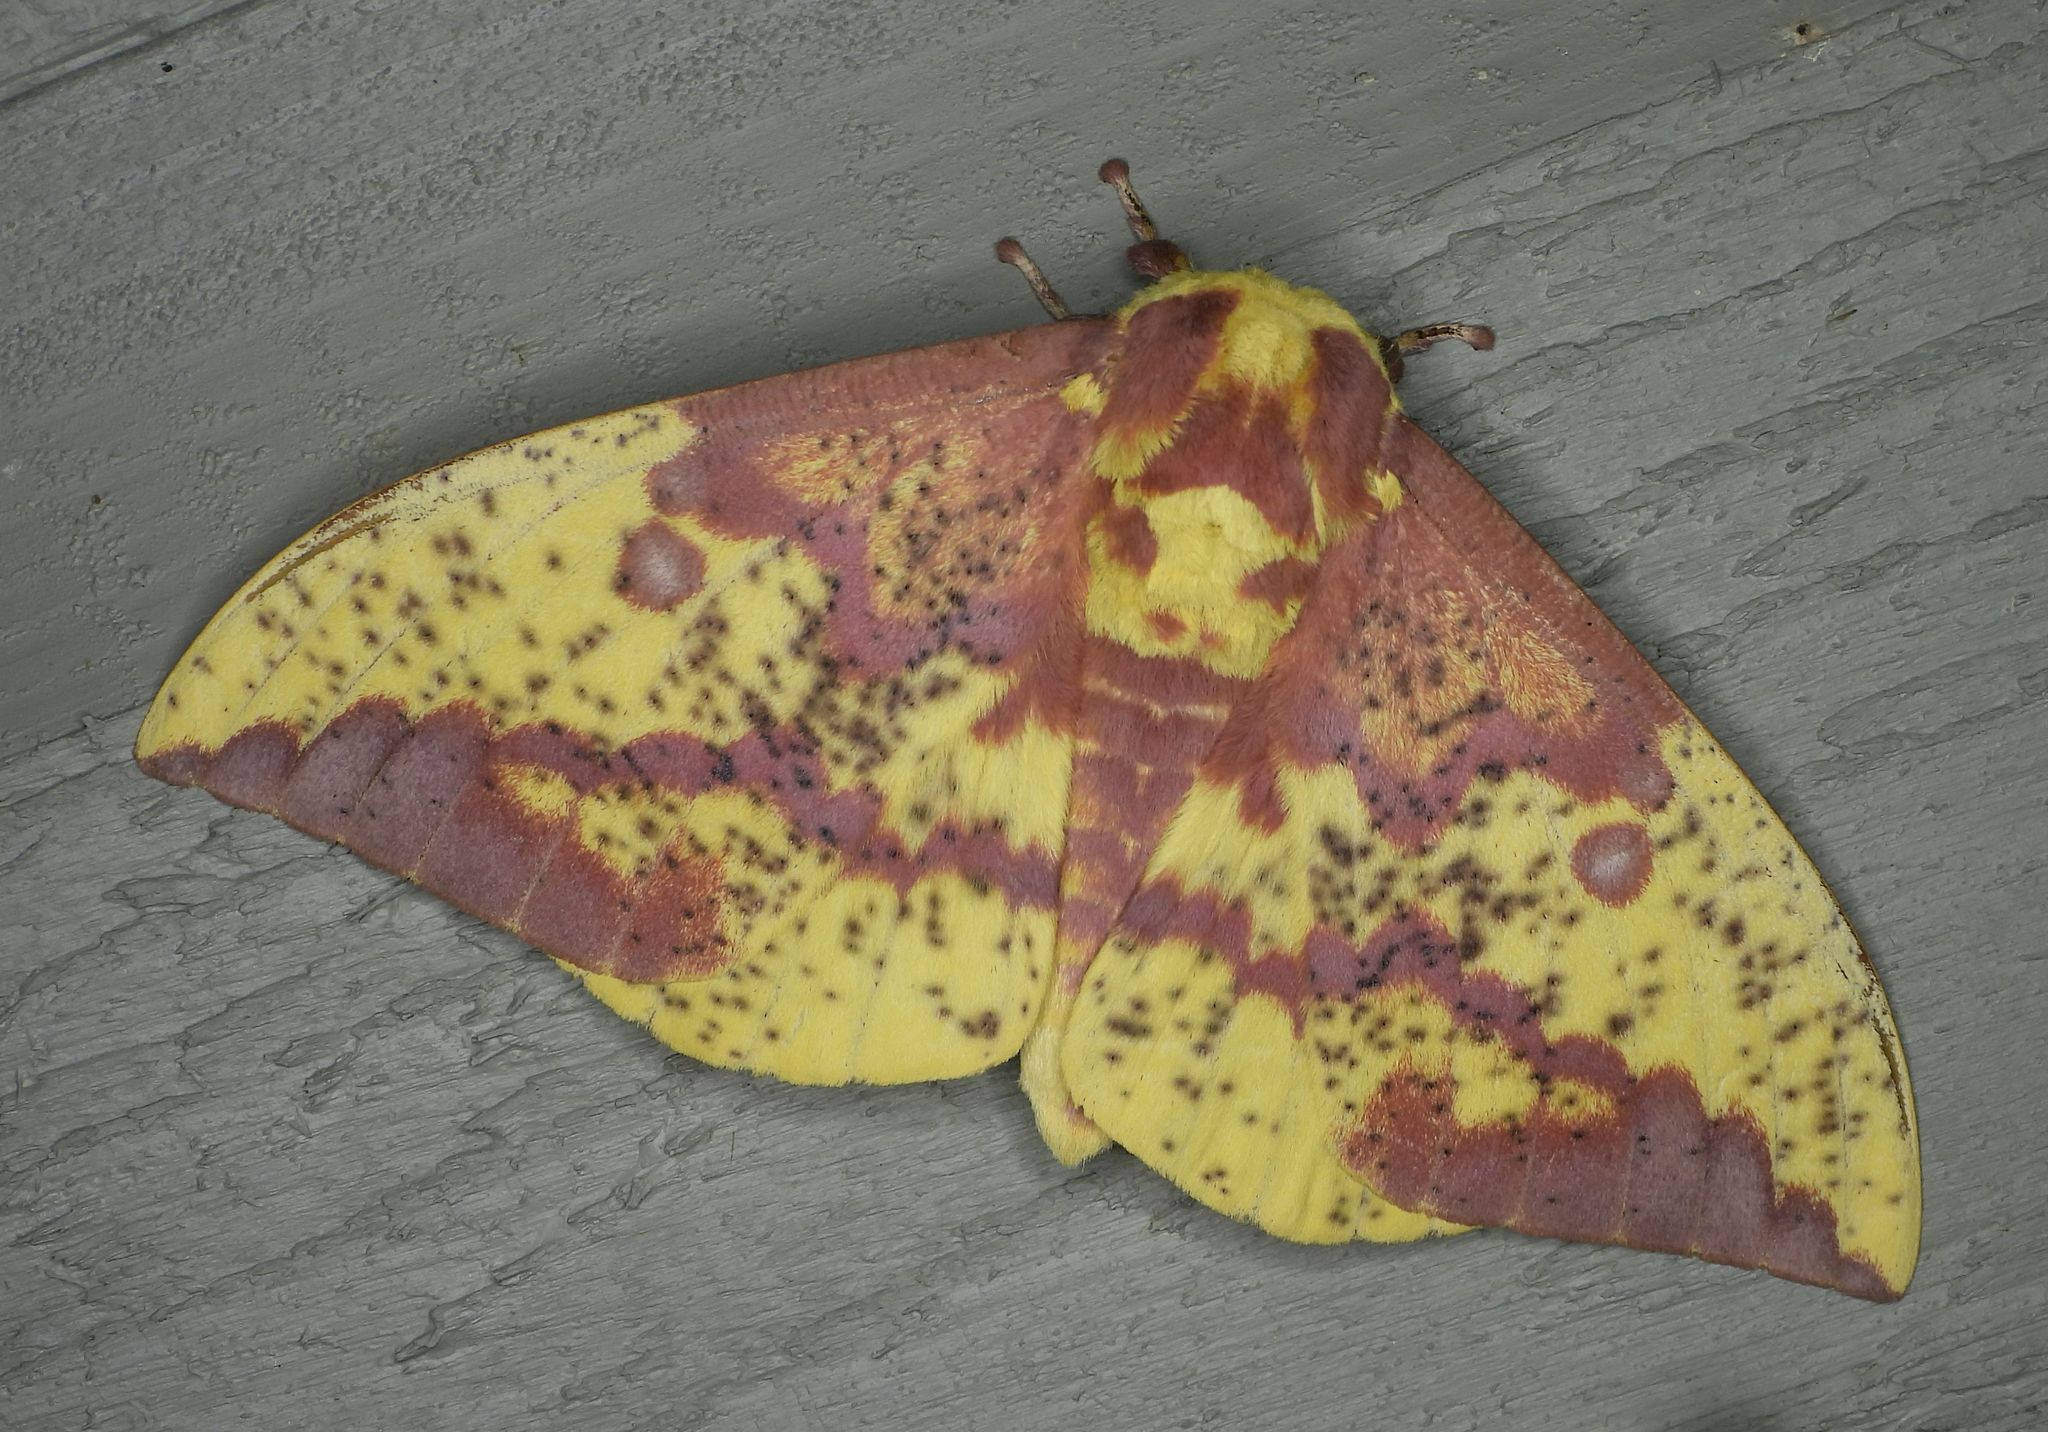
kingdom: Animalia
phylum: Arthropoda
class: Insecta
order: Lepidoptera
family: Saturniidae
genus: Eacles
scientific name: Eacles
